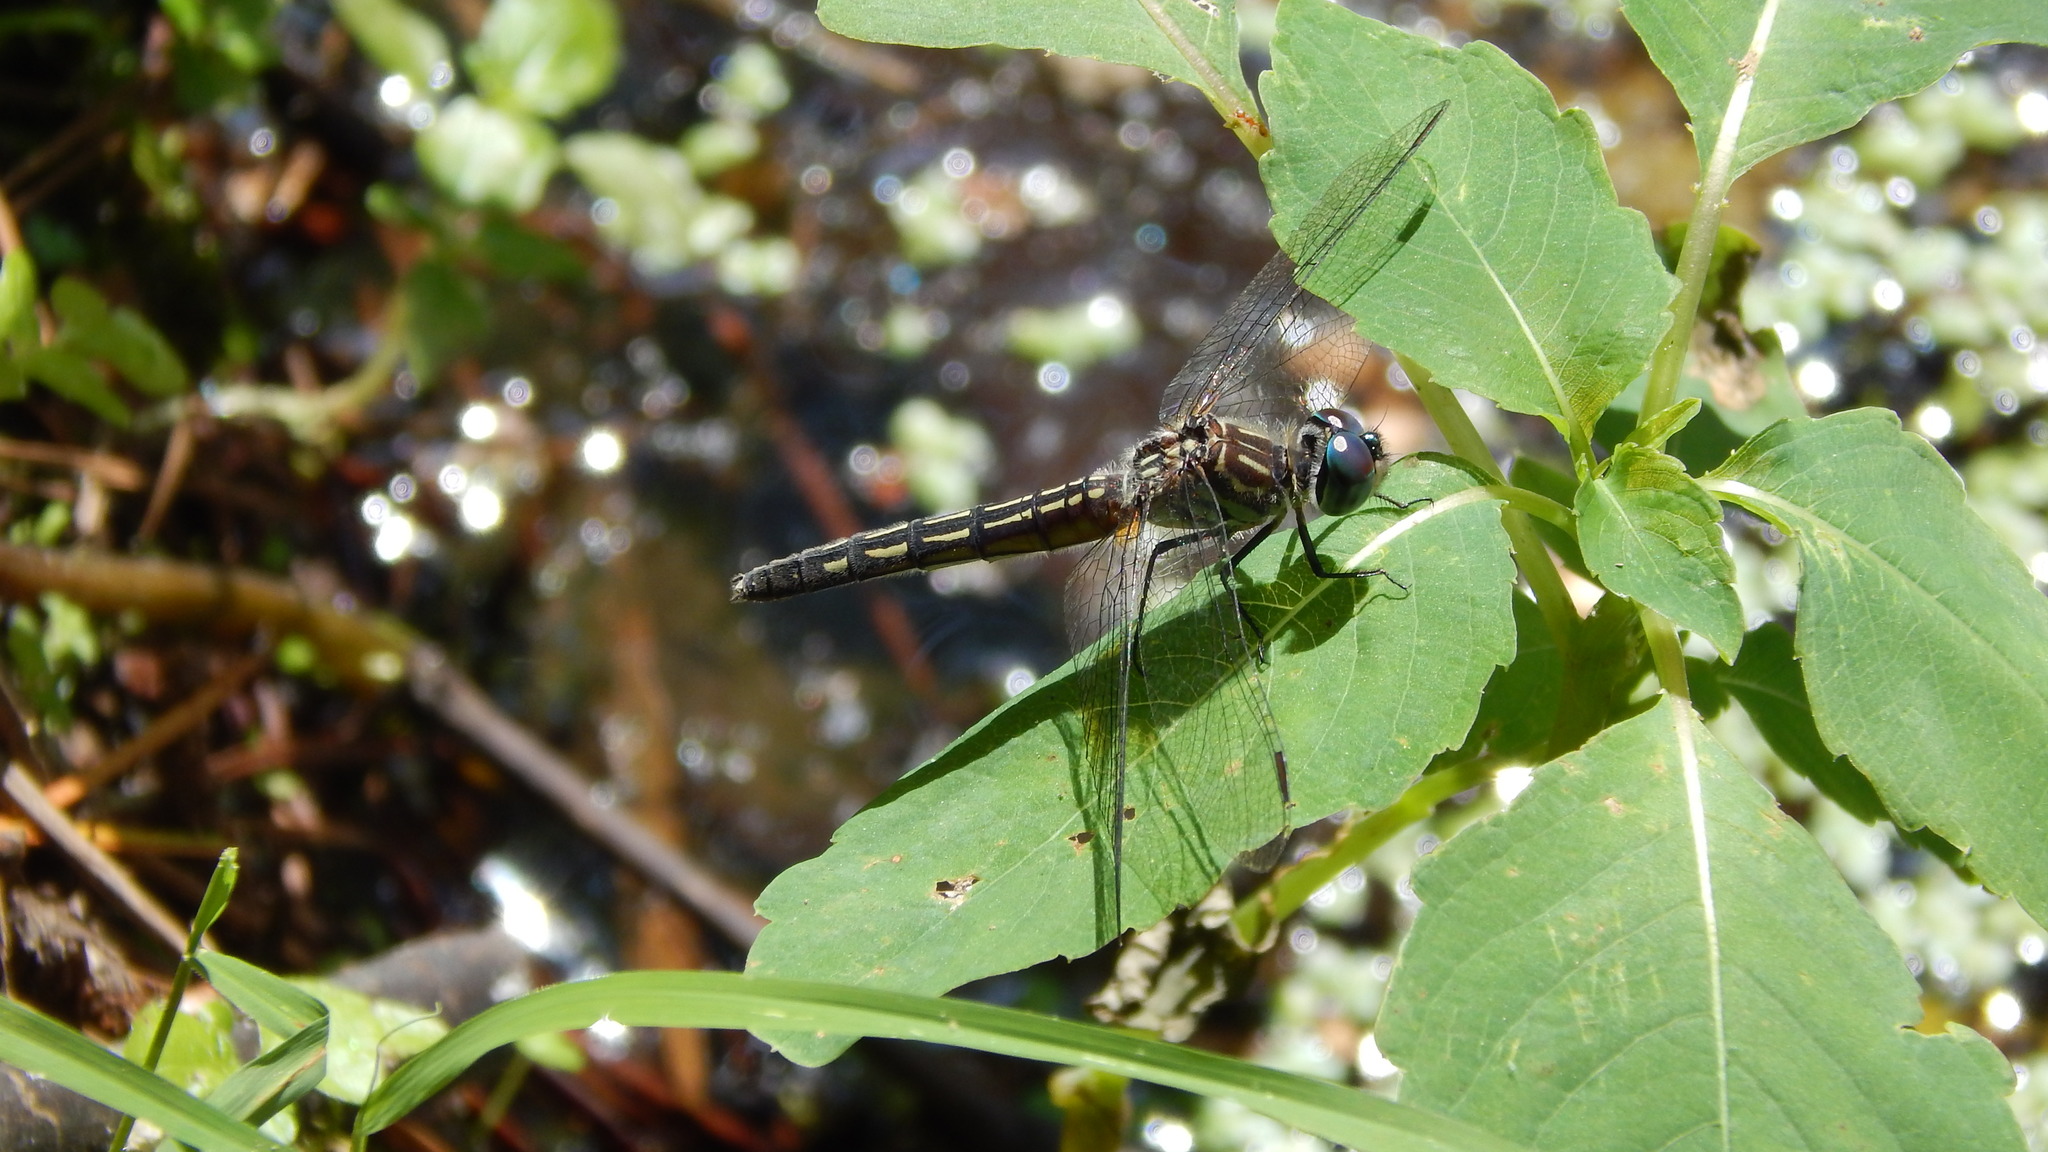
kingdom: Animalia
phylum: Arthropoda
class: Insecta
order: Odonata
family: Libellulidae
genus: Pachydiplax
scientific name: Pachydiplax longipennis
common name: Blue dasher
